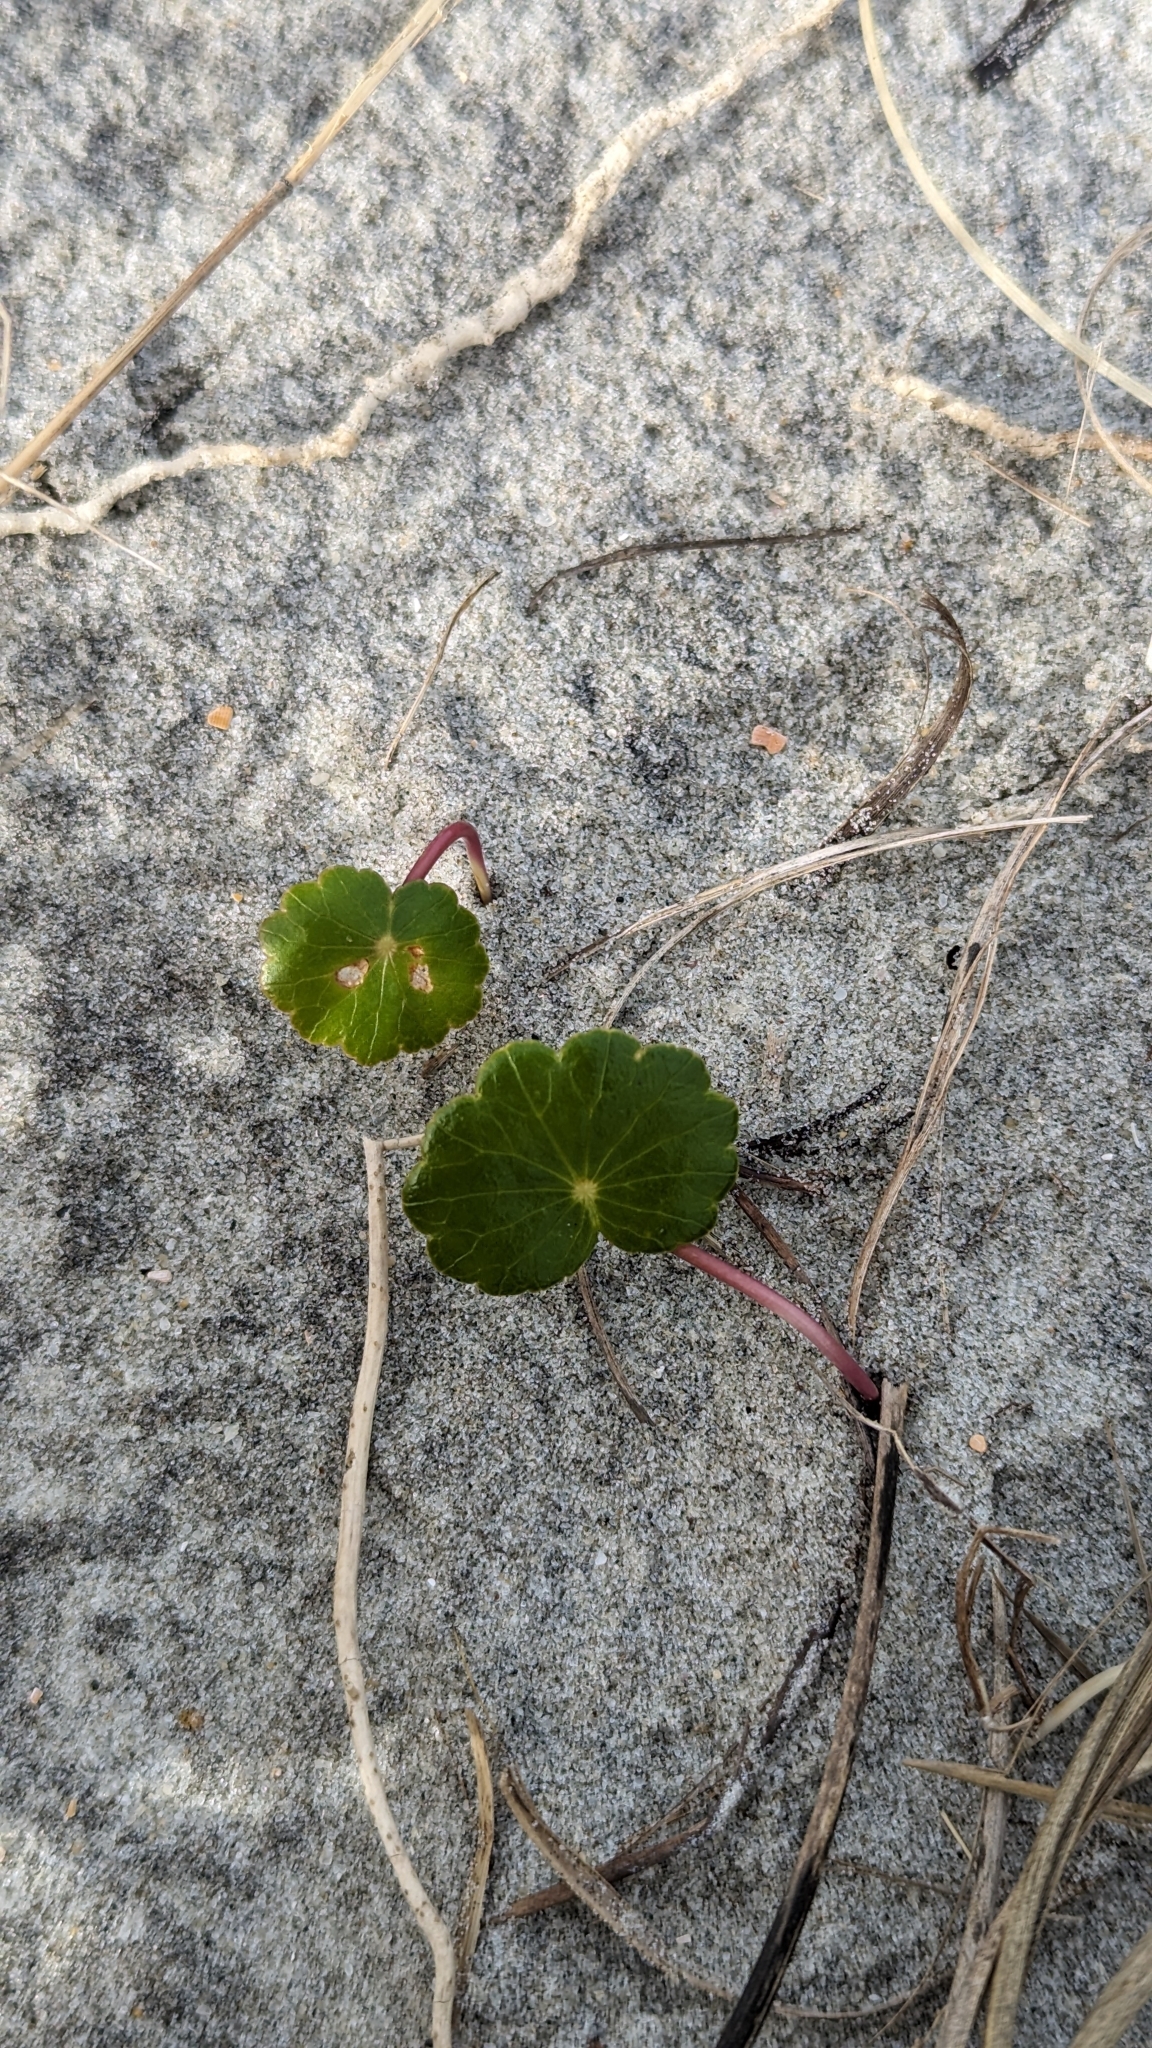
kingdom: Plantae
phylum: Tracheophyta
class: Magnoliopsida
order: Apiales
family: Araliaceae
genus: Hydrocotyle
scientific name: Hydrocotyle bonariensis
